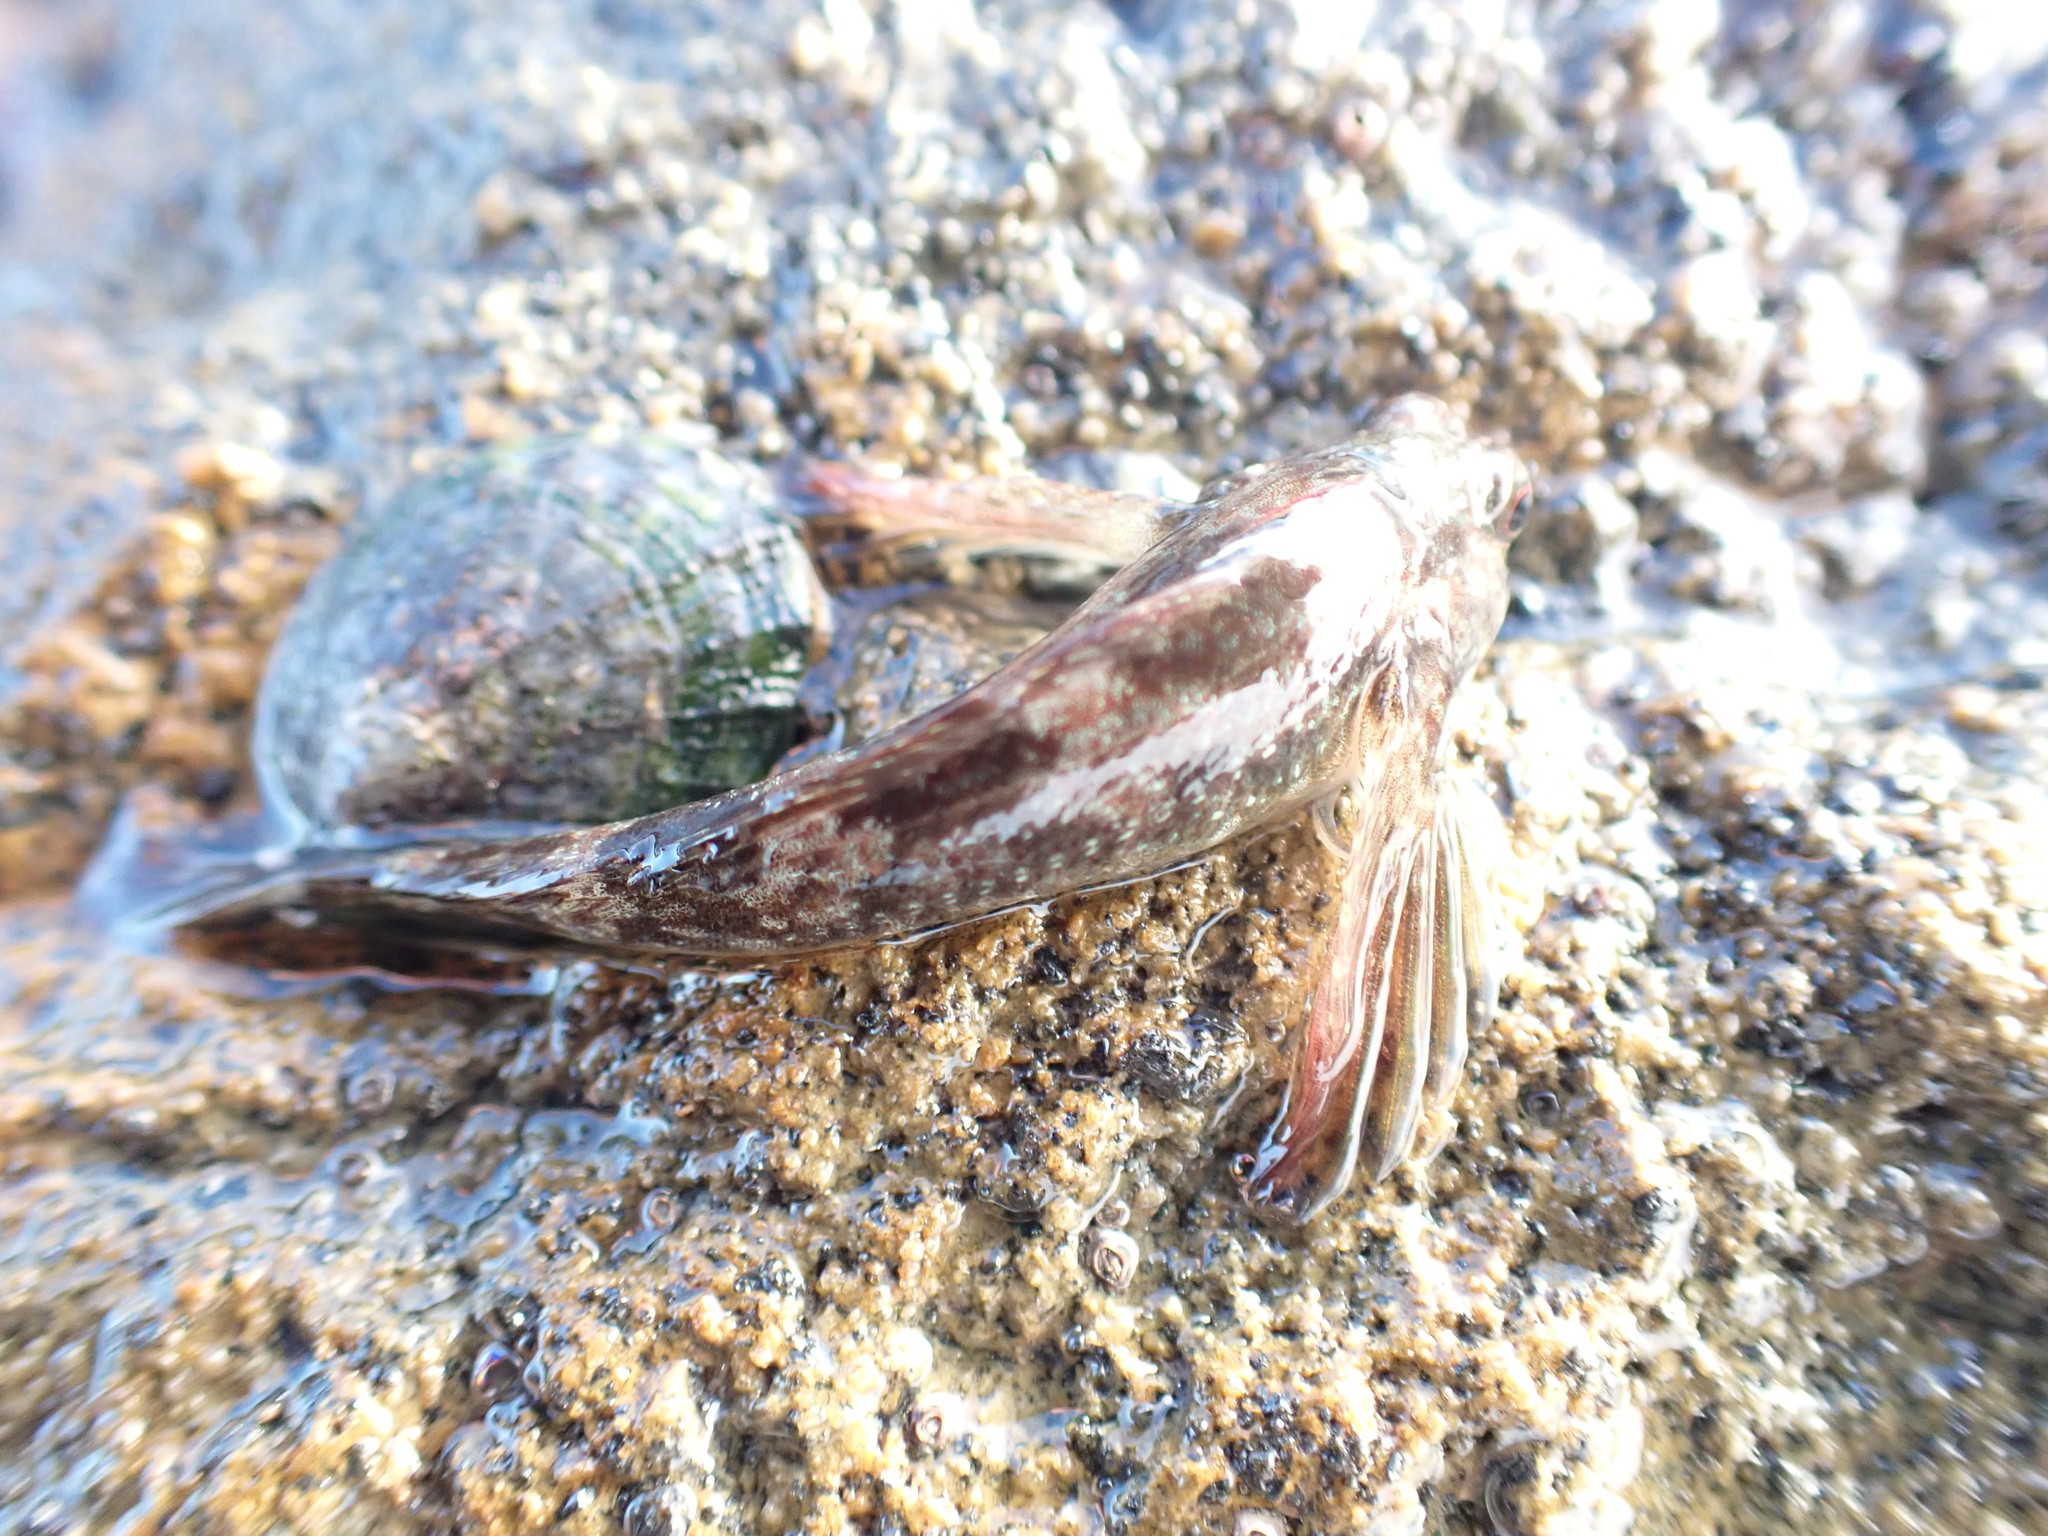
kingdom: Animalia
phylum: Chordata
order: Perciformes
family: Tripterygiidae
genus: Bellapiscis
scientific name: Bellapiscis lesleyae
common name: Mottled twister
